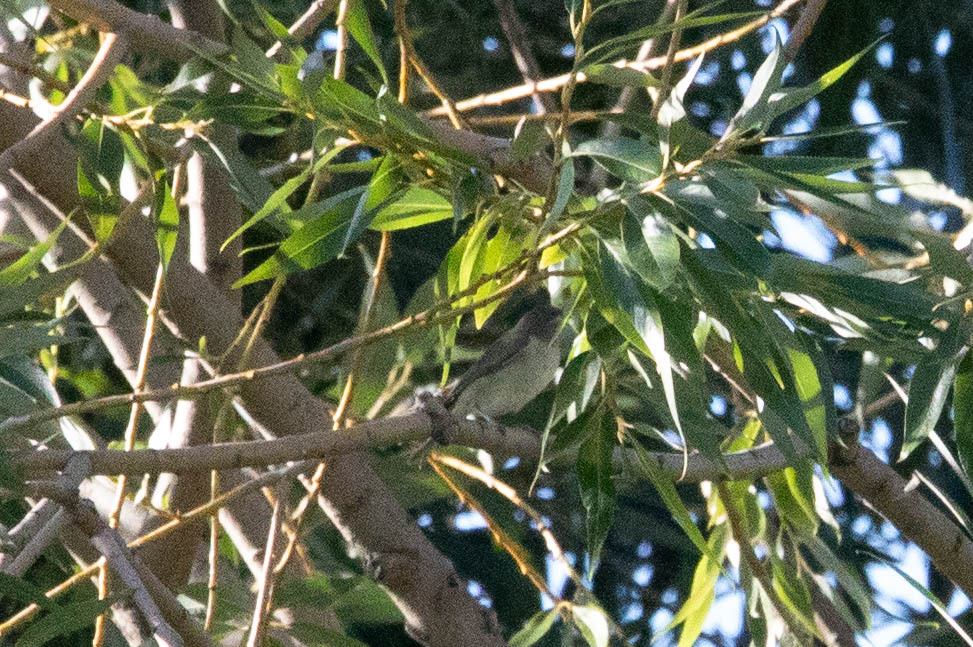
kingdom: Animalia
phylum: Chordata
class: Aves
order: Passeriformes
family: Vireonidae
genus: Vireo
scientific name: Vireo gilvus
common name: Warbling vireo
